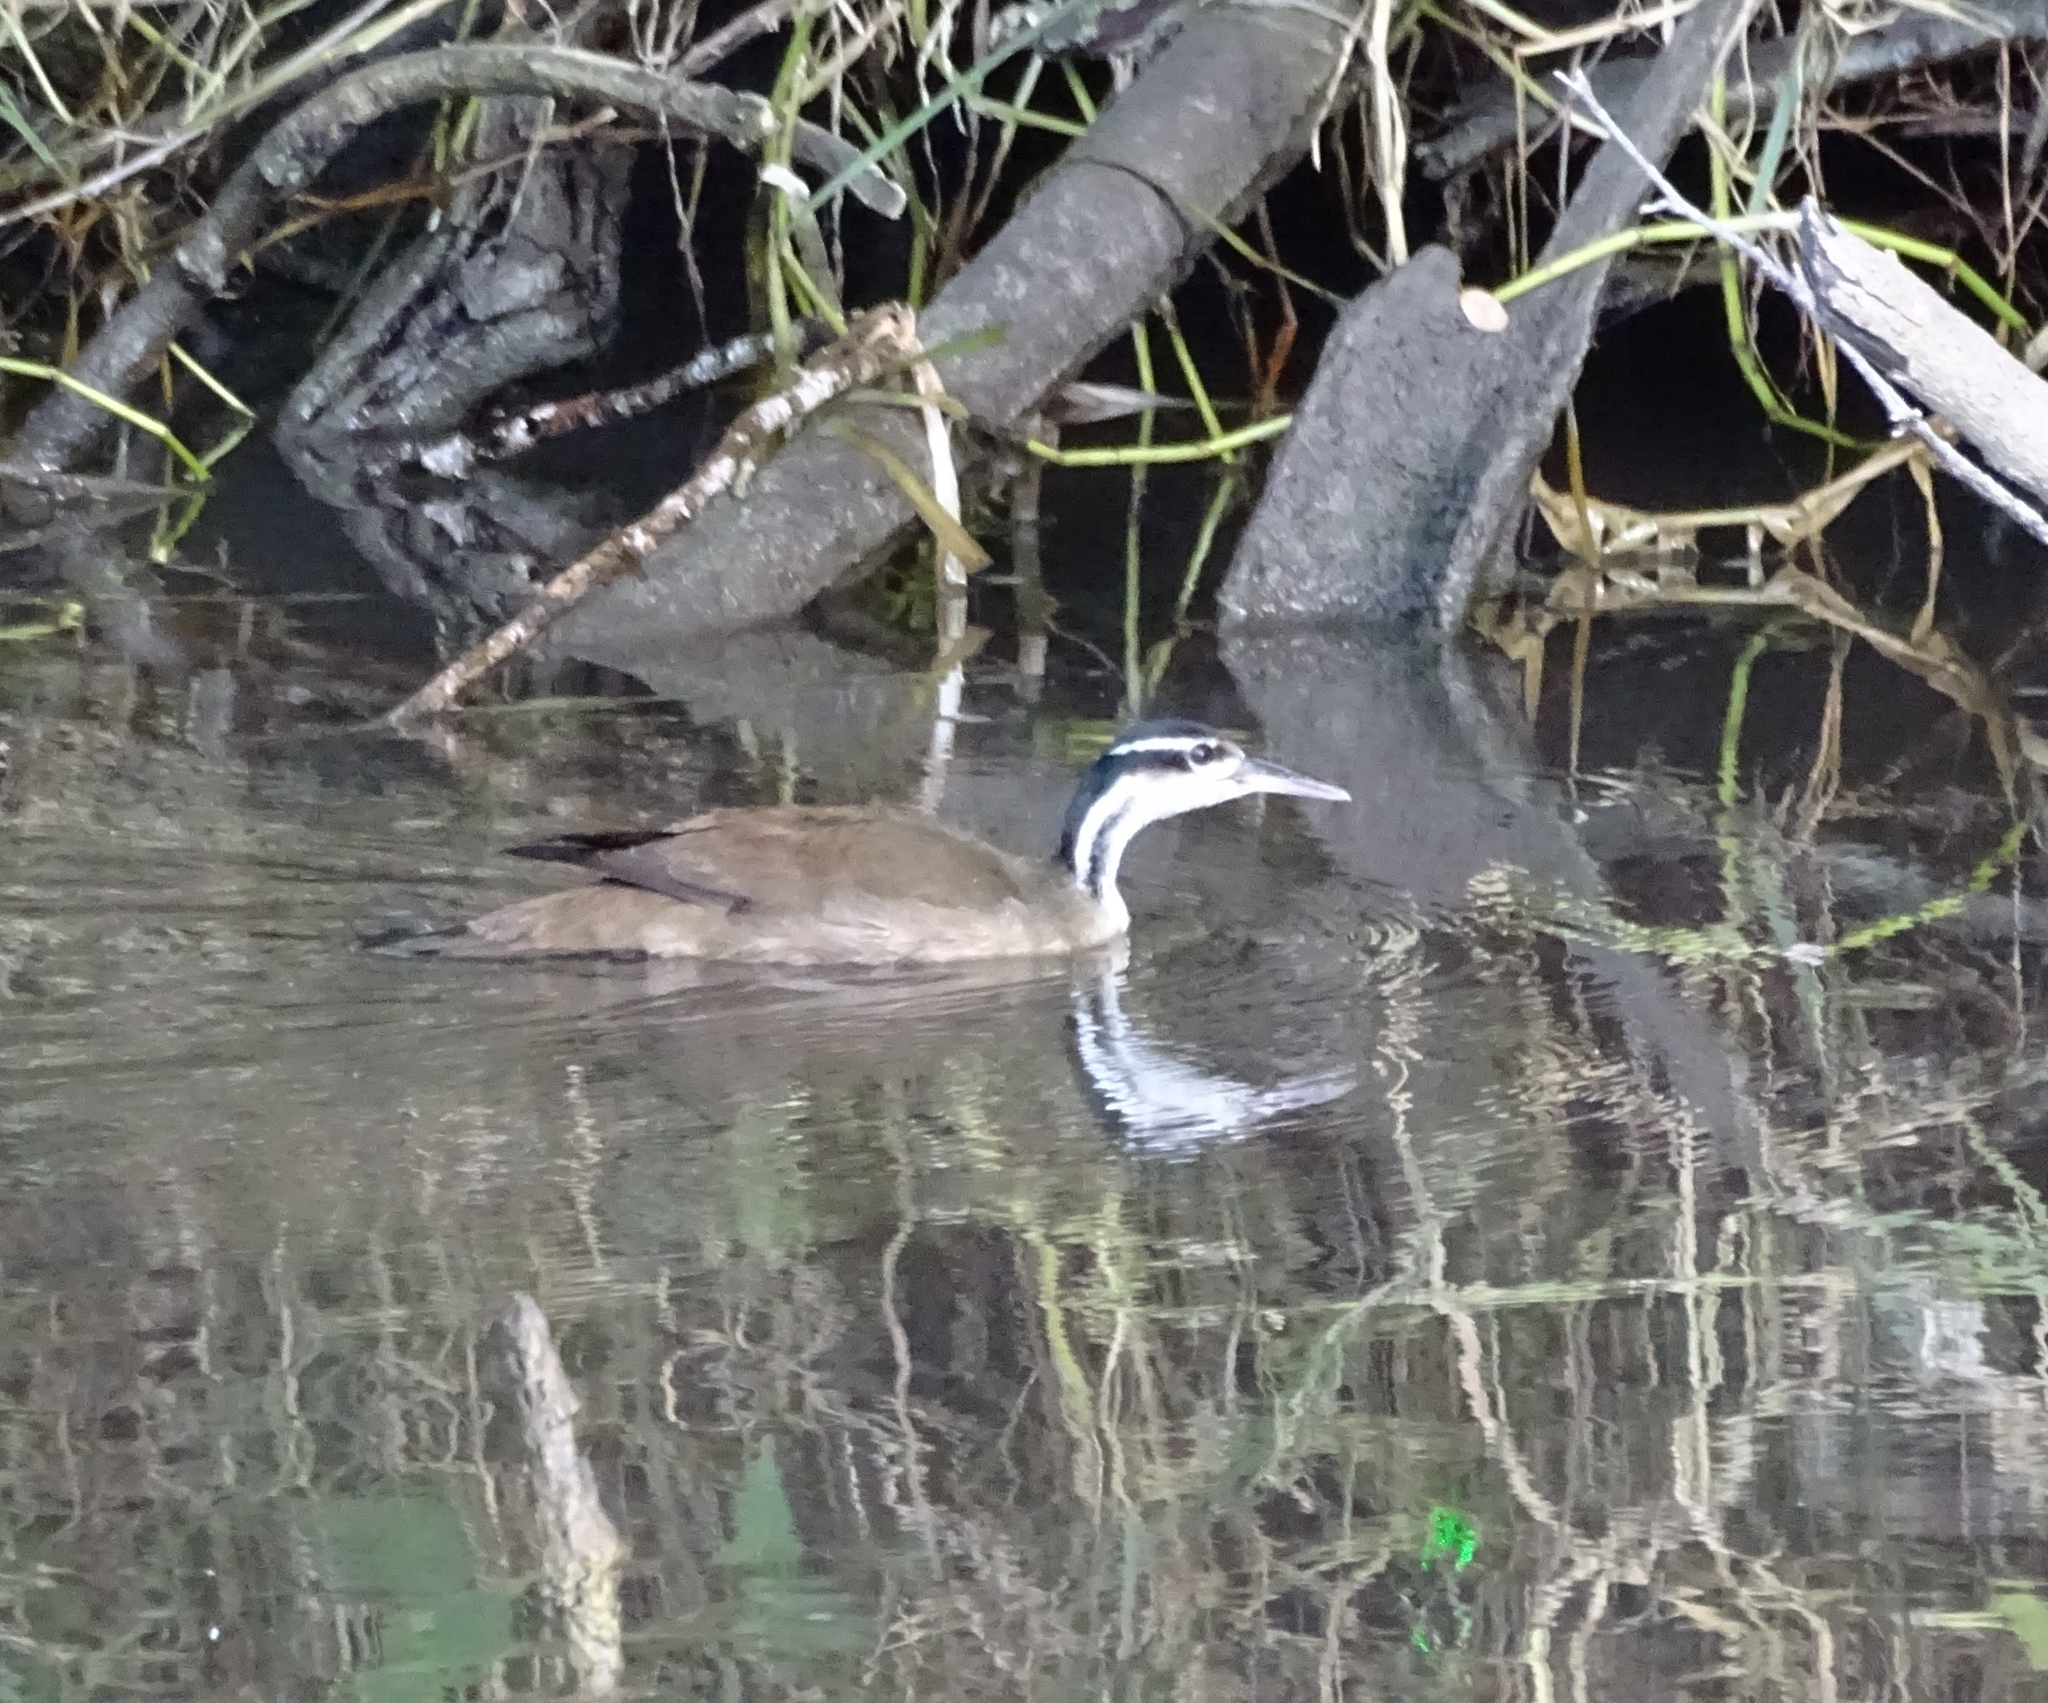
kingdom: Animalia
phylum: Chordata
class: Aves
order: Gruiformes
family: Heliornithidae
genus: Heliornis
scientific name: Heliornis fulica
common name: Sungrebe
